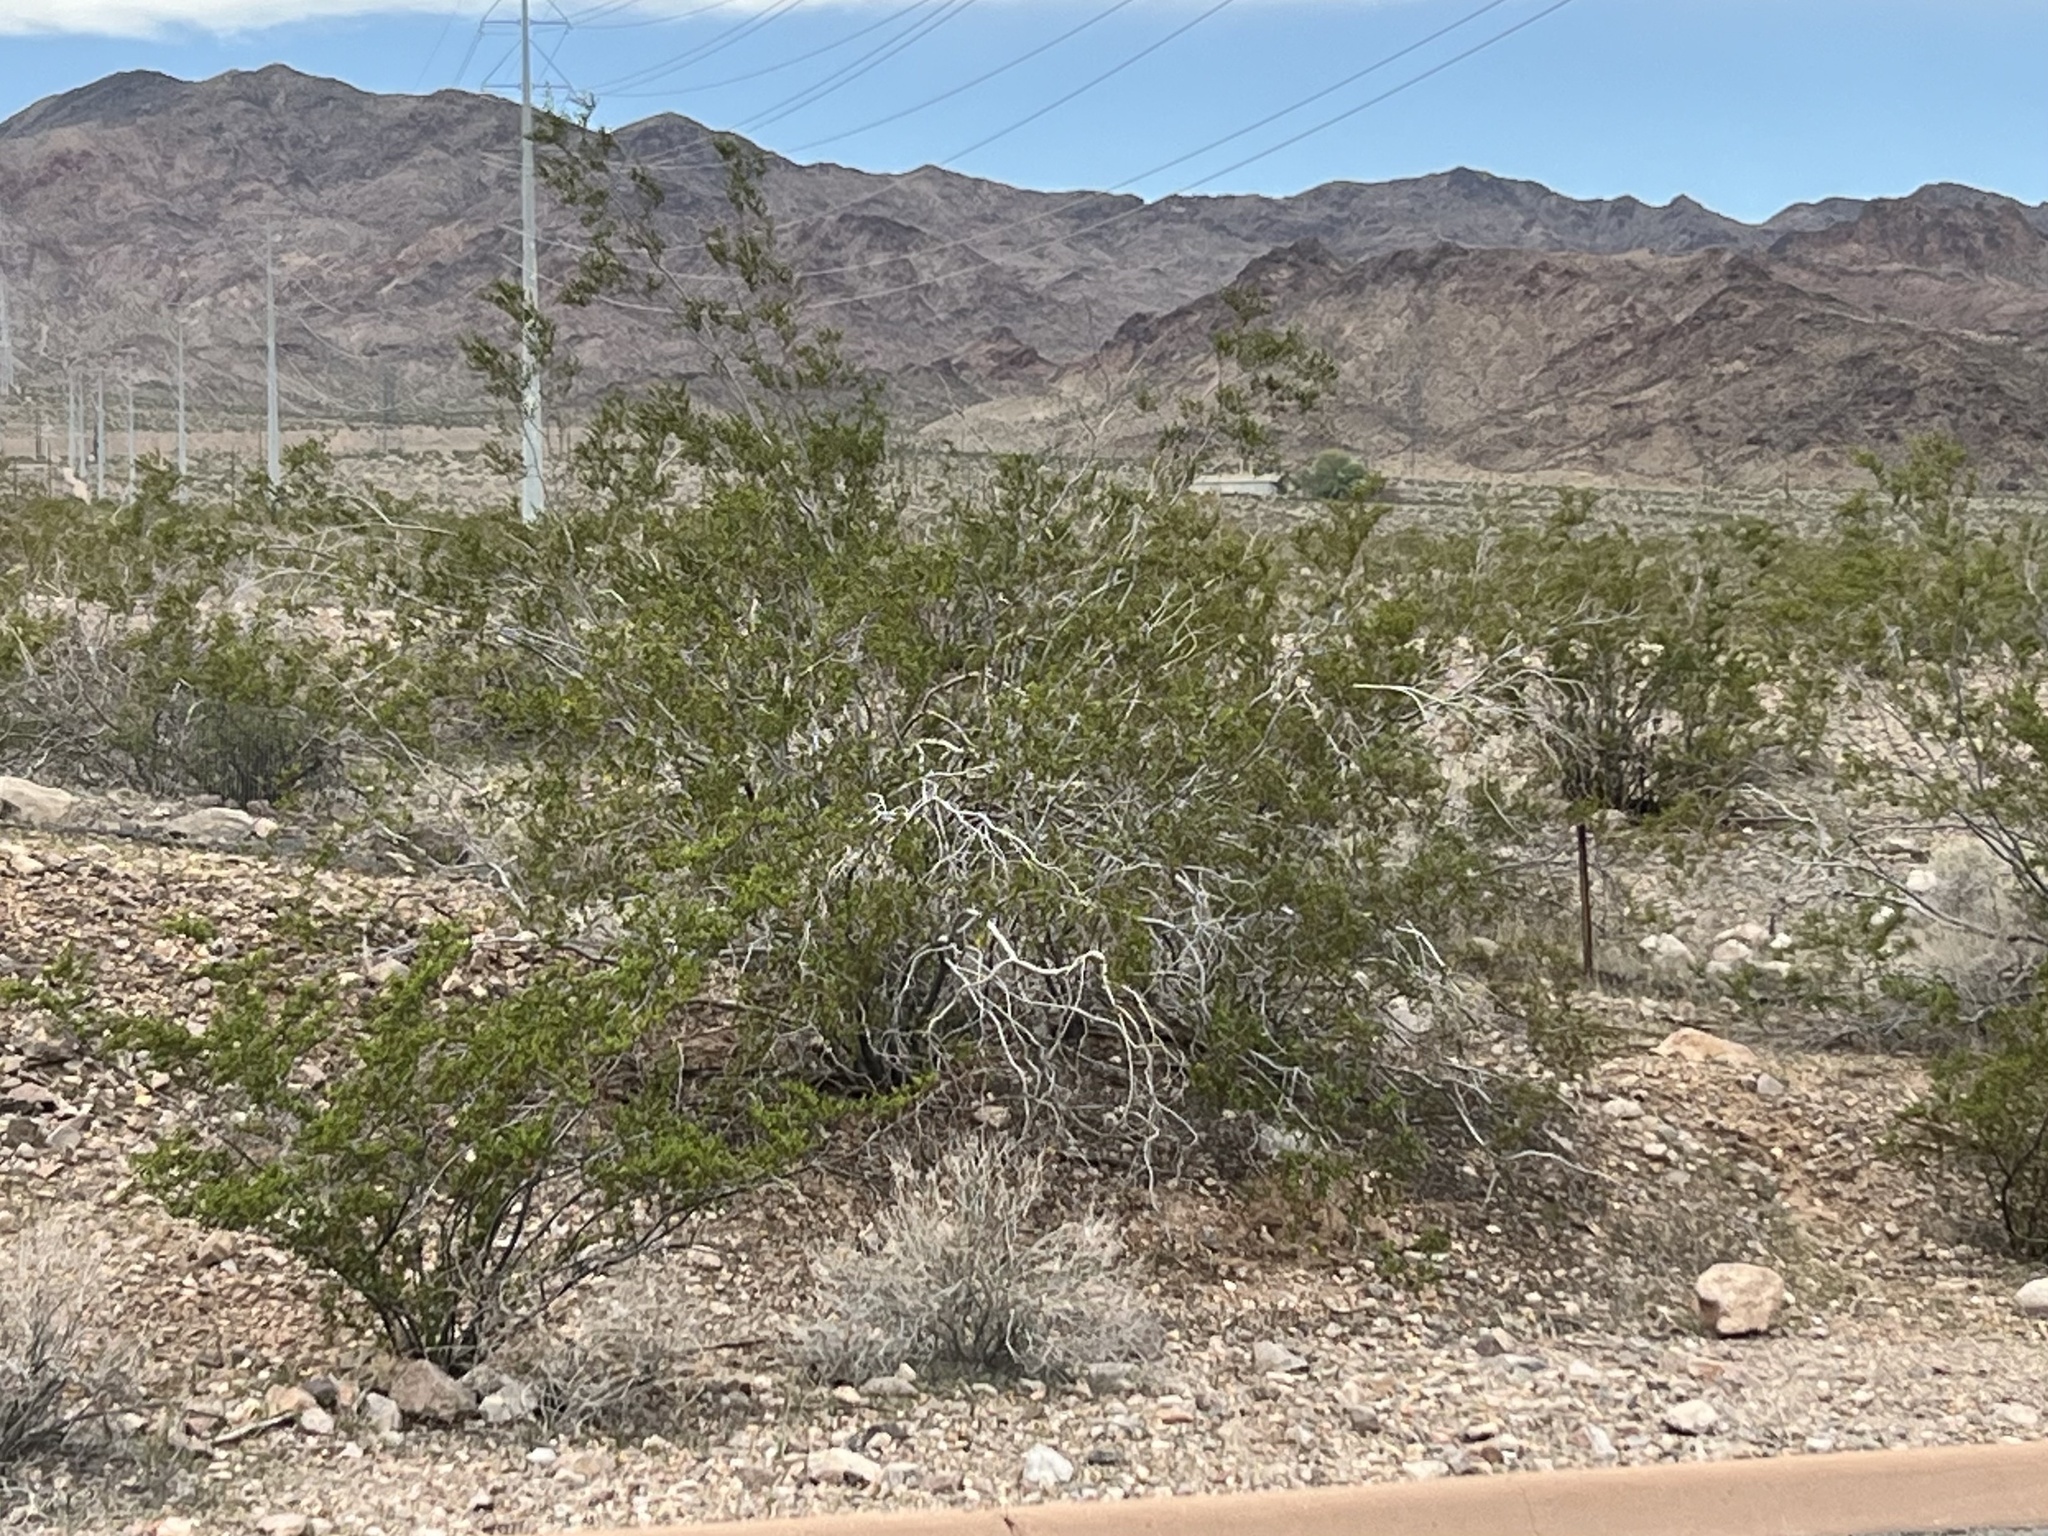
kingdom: Plantae
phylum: Tracheophyta
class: Magnoliopsida
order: Zygophyllales
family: Zygophyllaceae
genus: Larrea
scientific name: Larrea tridentata
